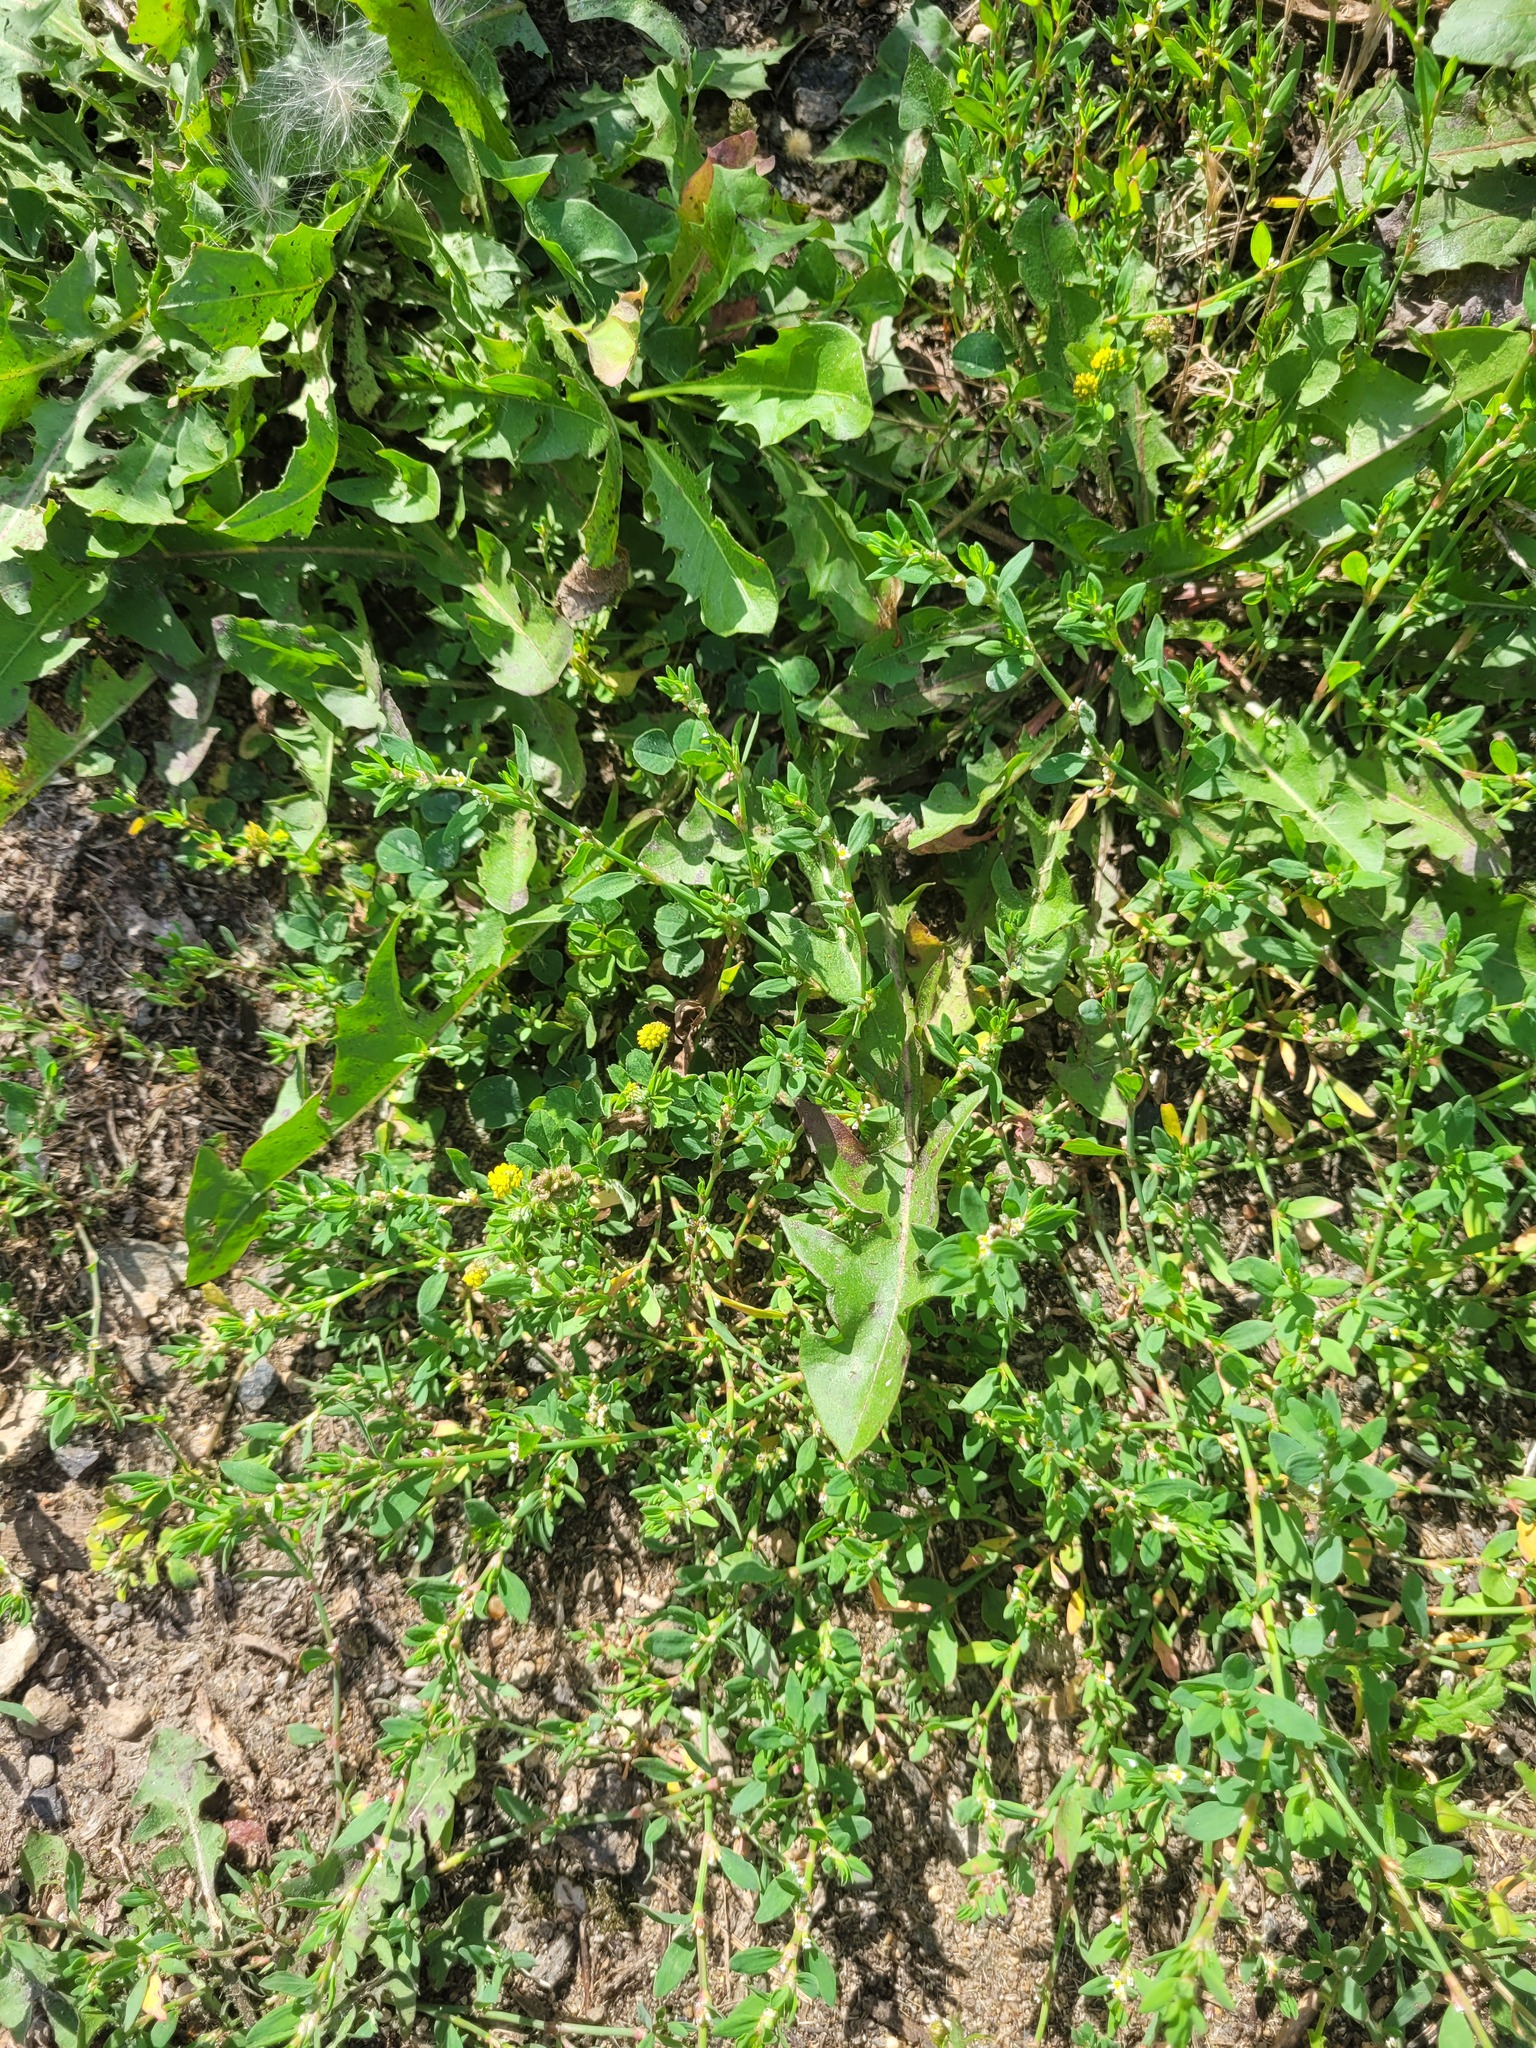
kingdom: Plantae
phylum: Tracheophyta
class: Magnoliopsida
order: Fabales
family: Fabaceae
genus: Medicago
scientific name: Medicago lupulina
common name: Black medick
